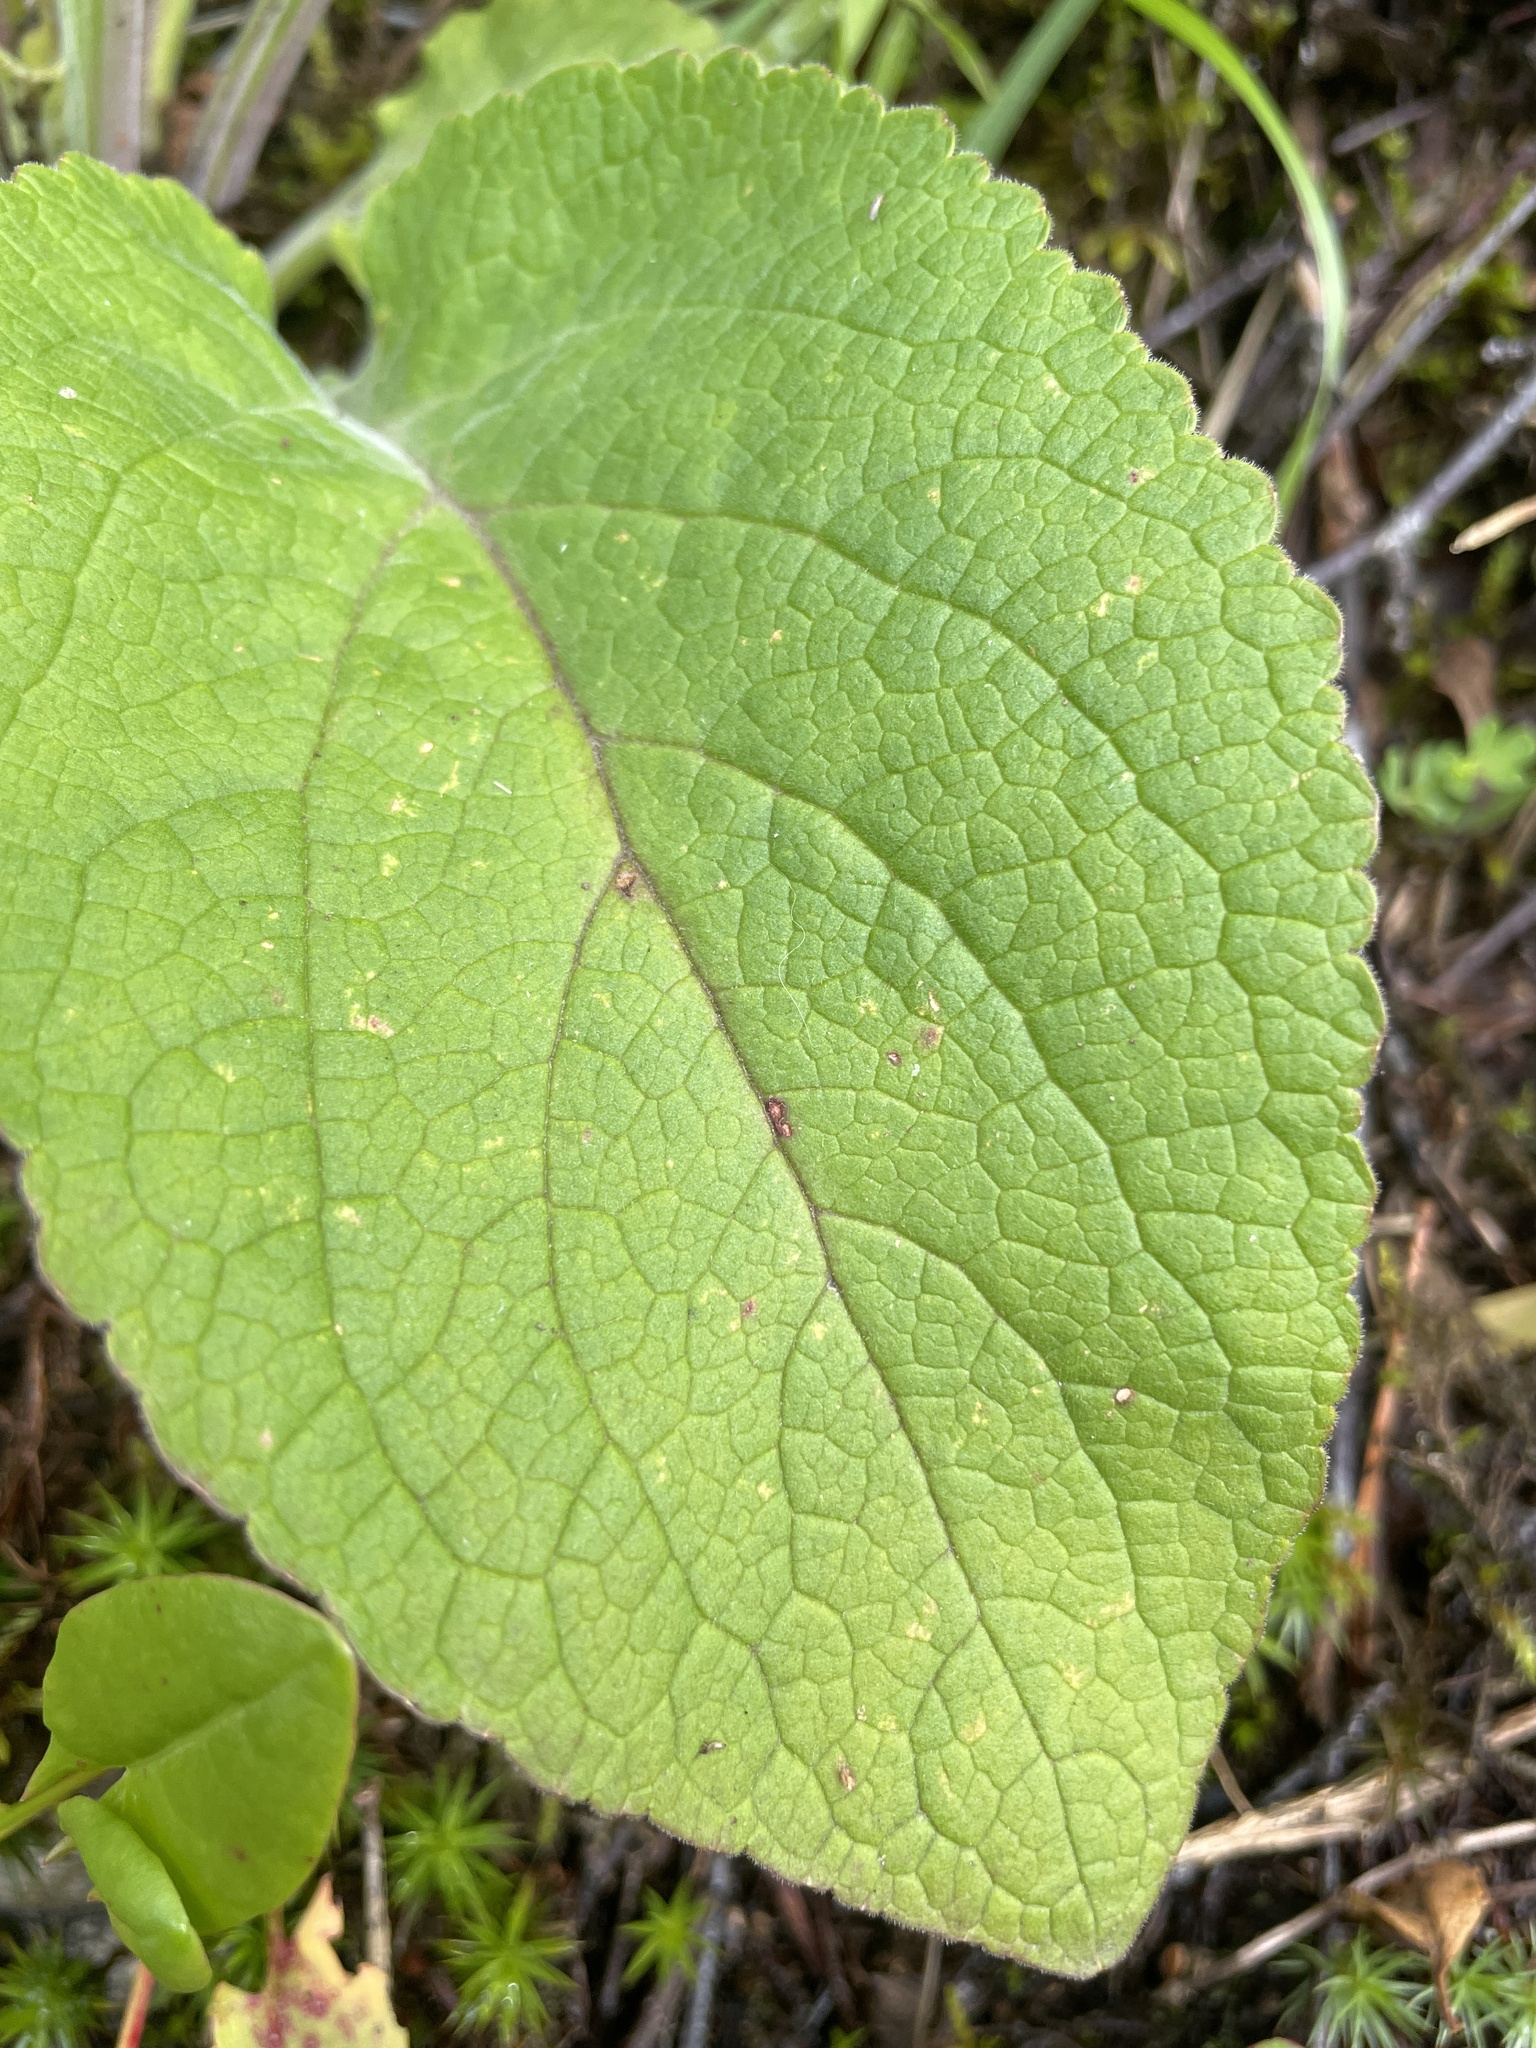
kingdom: Plantae
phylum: Tracheophyta
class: Magnoliopsida
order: Lamiales
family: Plantaginaceae
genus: Digitalis
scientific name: Digitalis purpurea
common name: Foxglove
